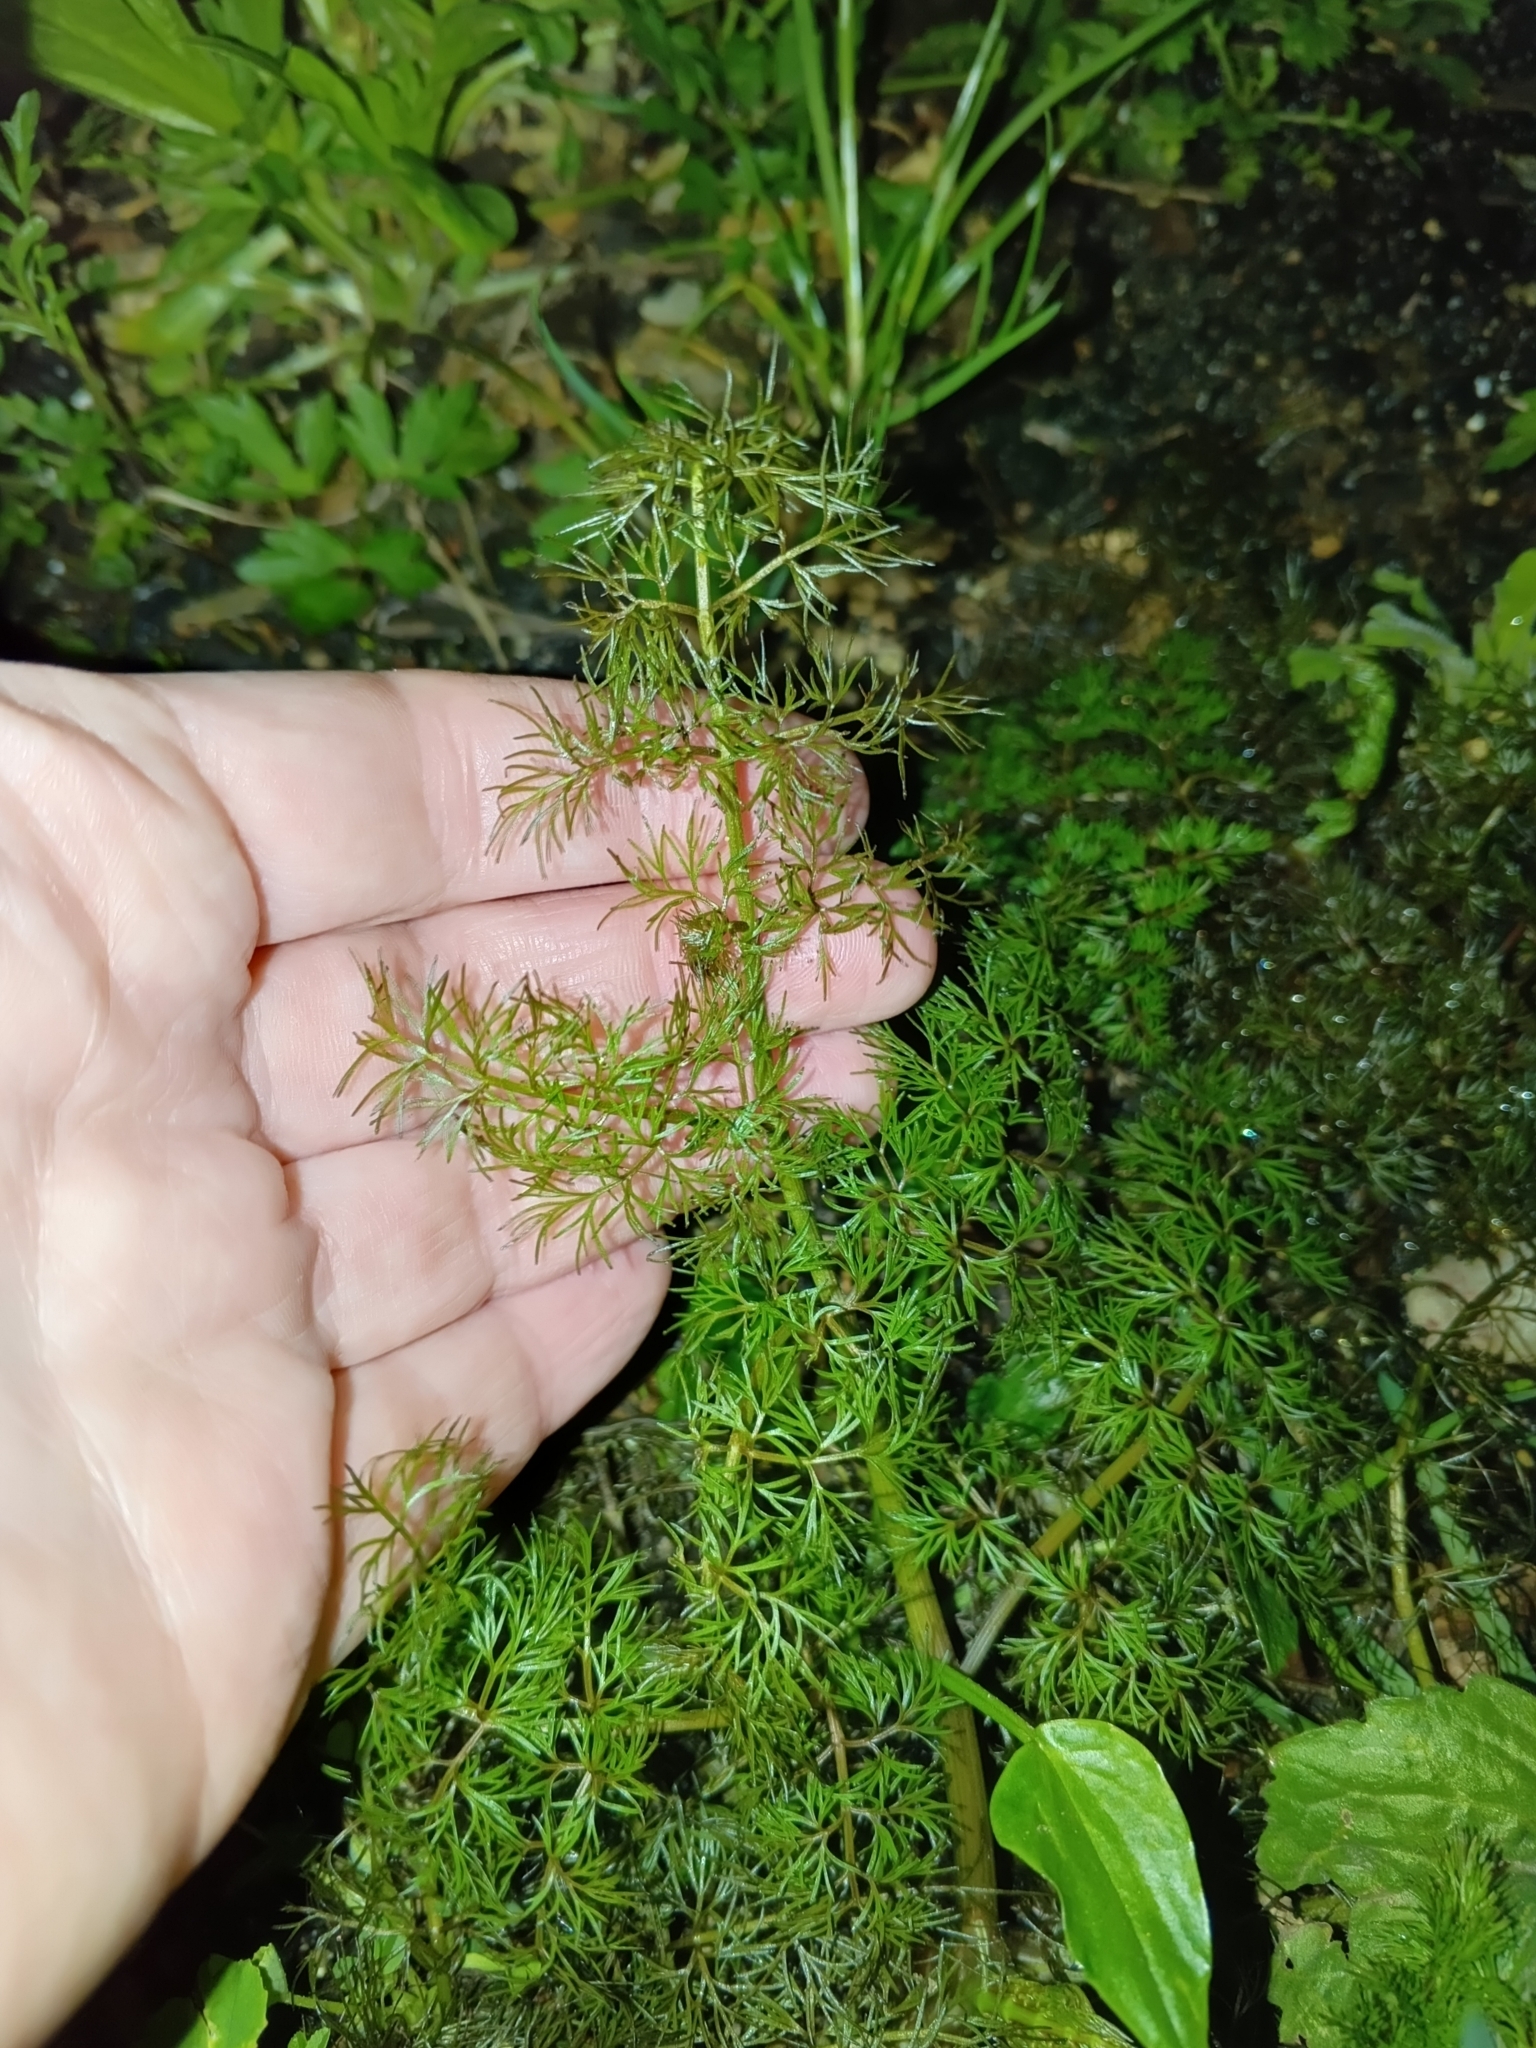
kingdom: Plantae
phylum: Tracheophyta
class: Magnoliopsida
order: Apiales
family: Apiaceae
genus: Oenanthe
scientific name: Oenanthe aquatica
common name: Fine-leaved water-dropwort
